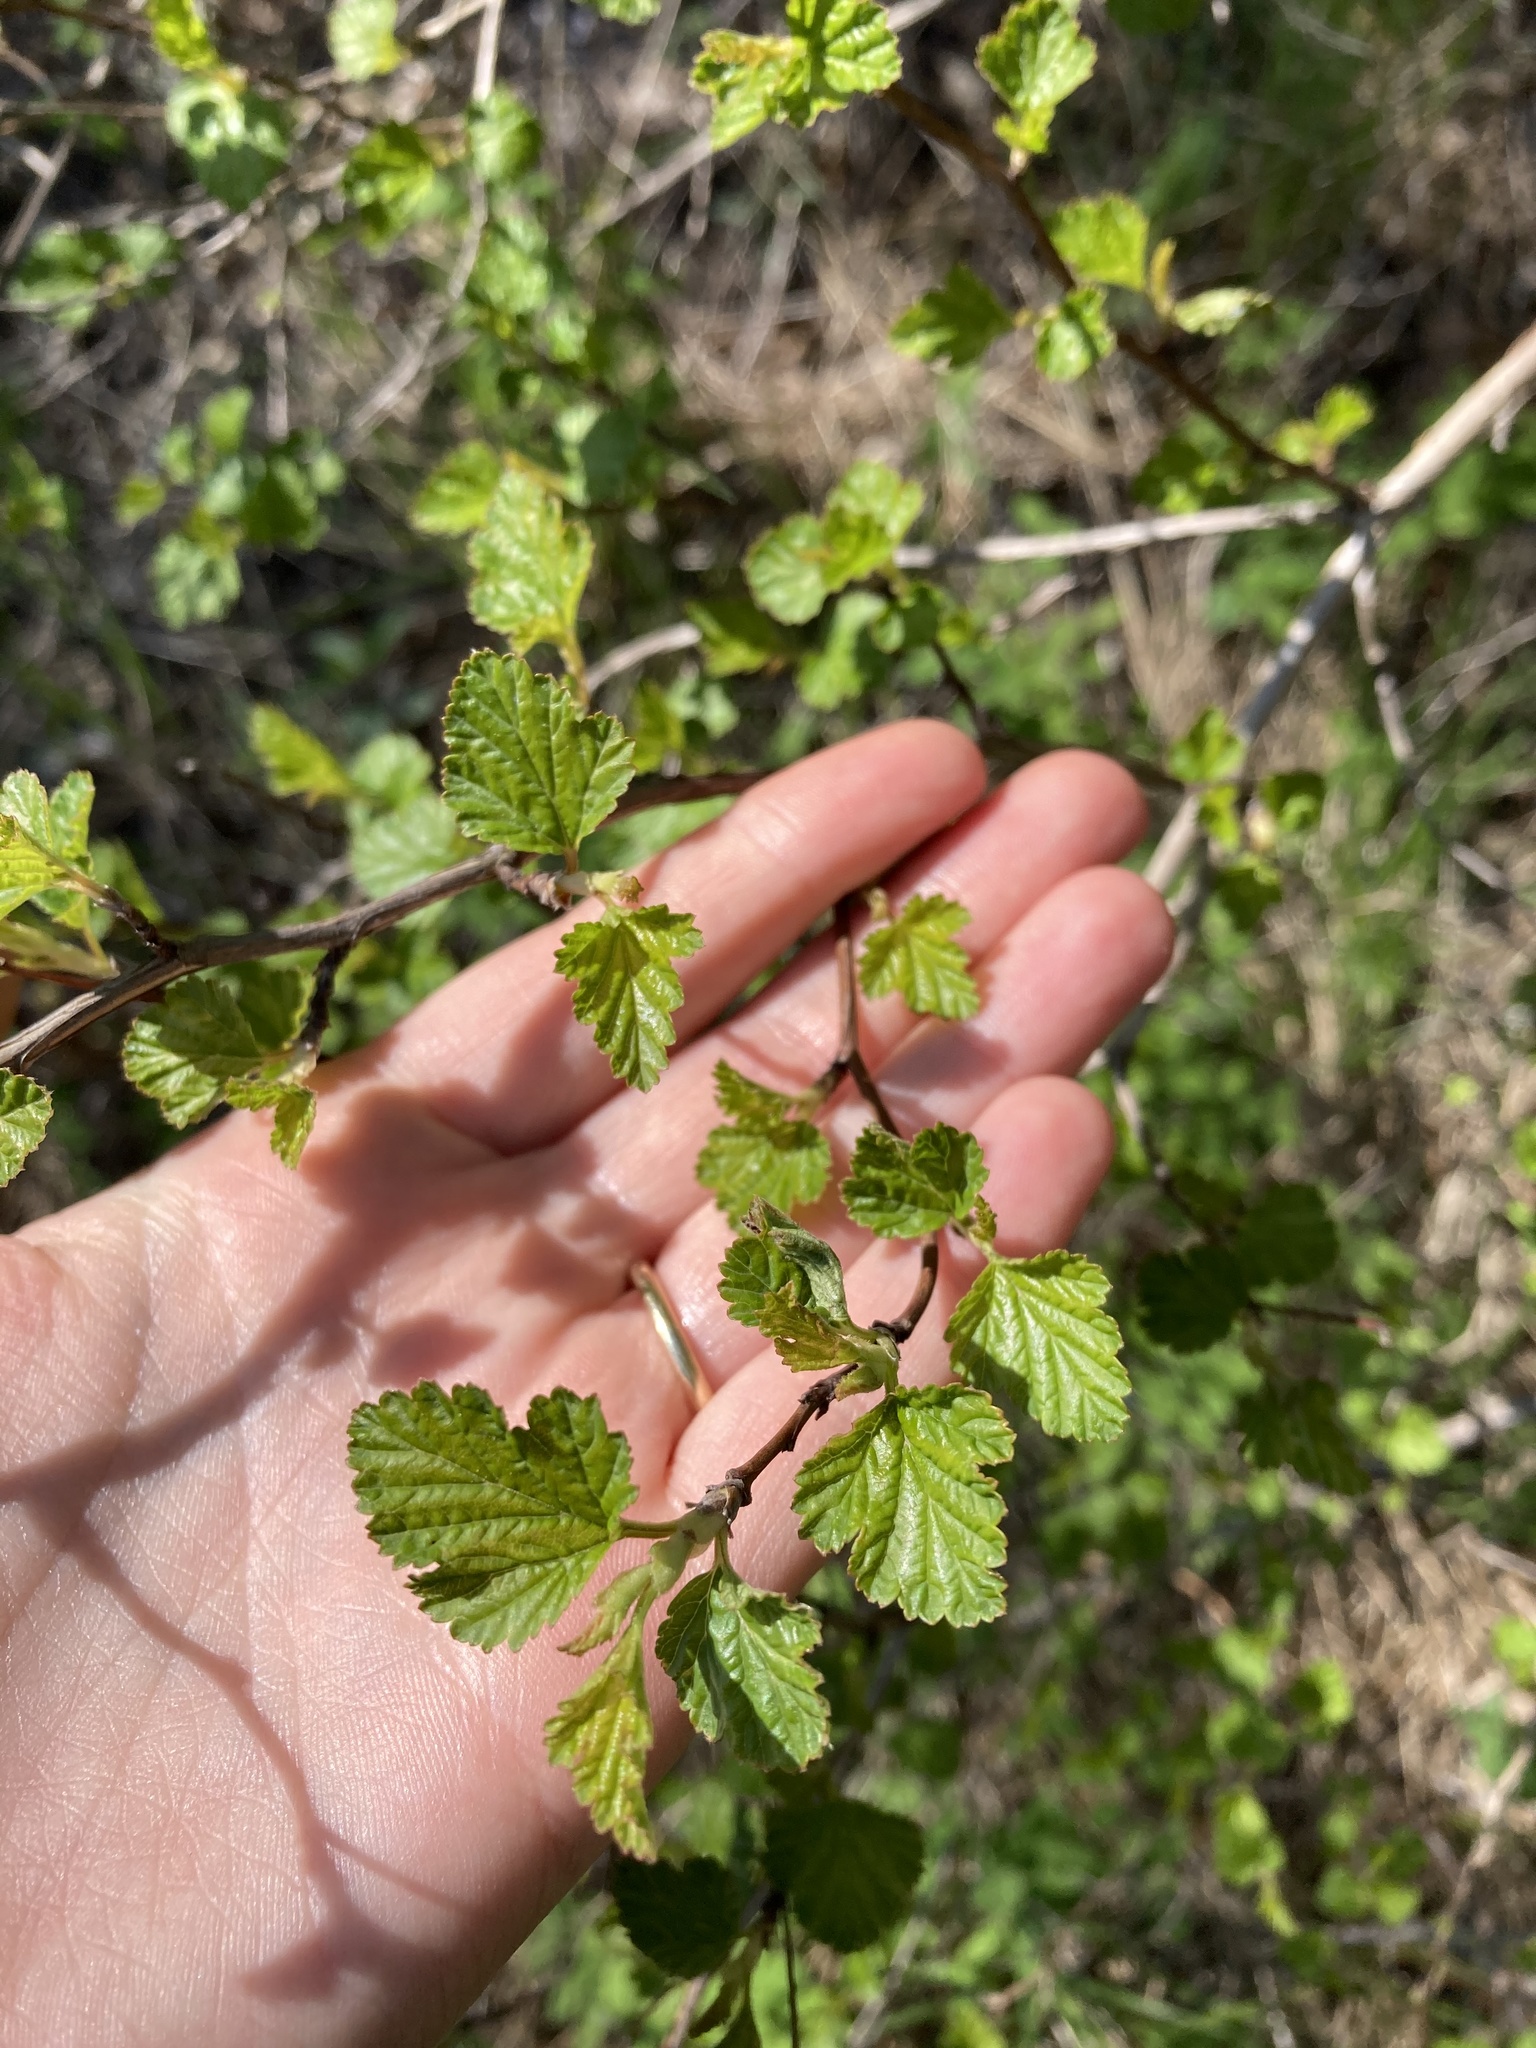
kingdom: Plantae
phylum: Tracheophyta
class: Magnoliopsida
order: Rosales
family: Rosaceae
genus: Physocarpus
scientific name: Physocarpus opulifolius
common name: Ninebark
